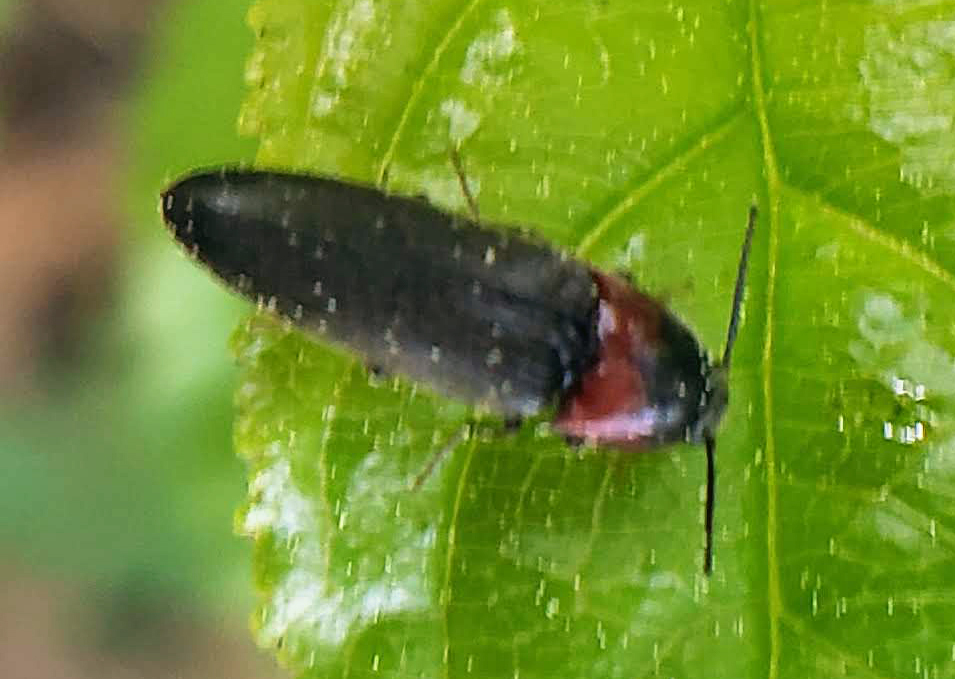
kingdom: Animalia
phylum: Arthropoda
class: Insecta
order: Coleoptera
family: Elateridae
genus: Ampedus
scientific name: Ampedus rubricus
